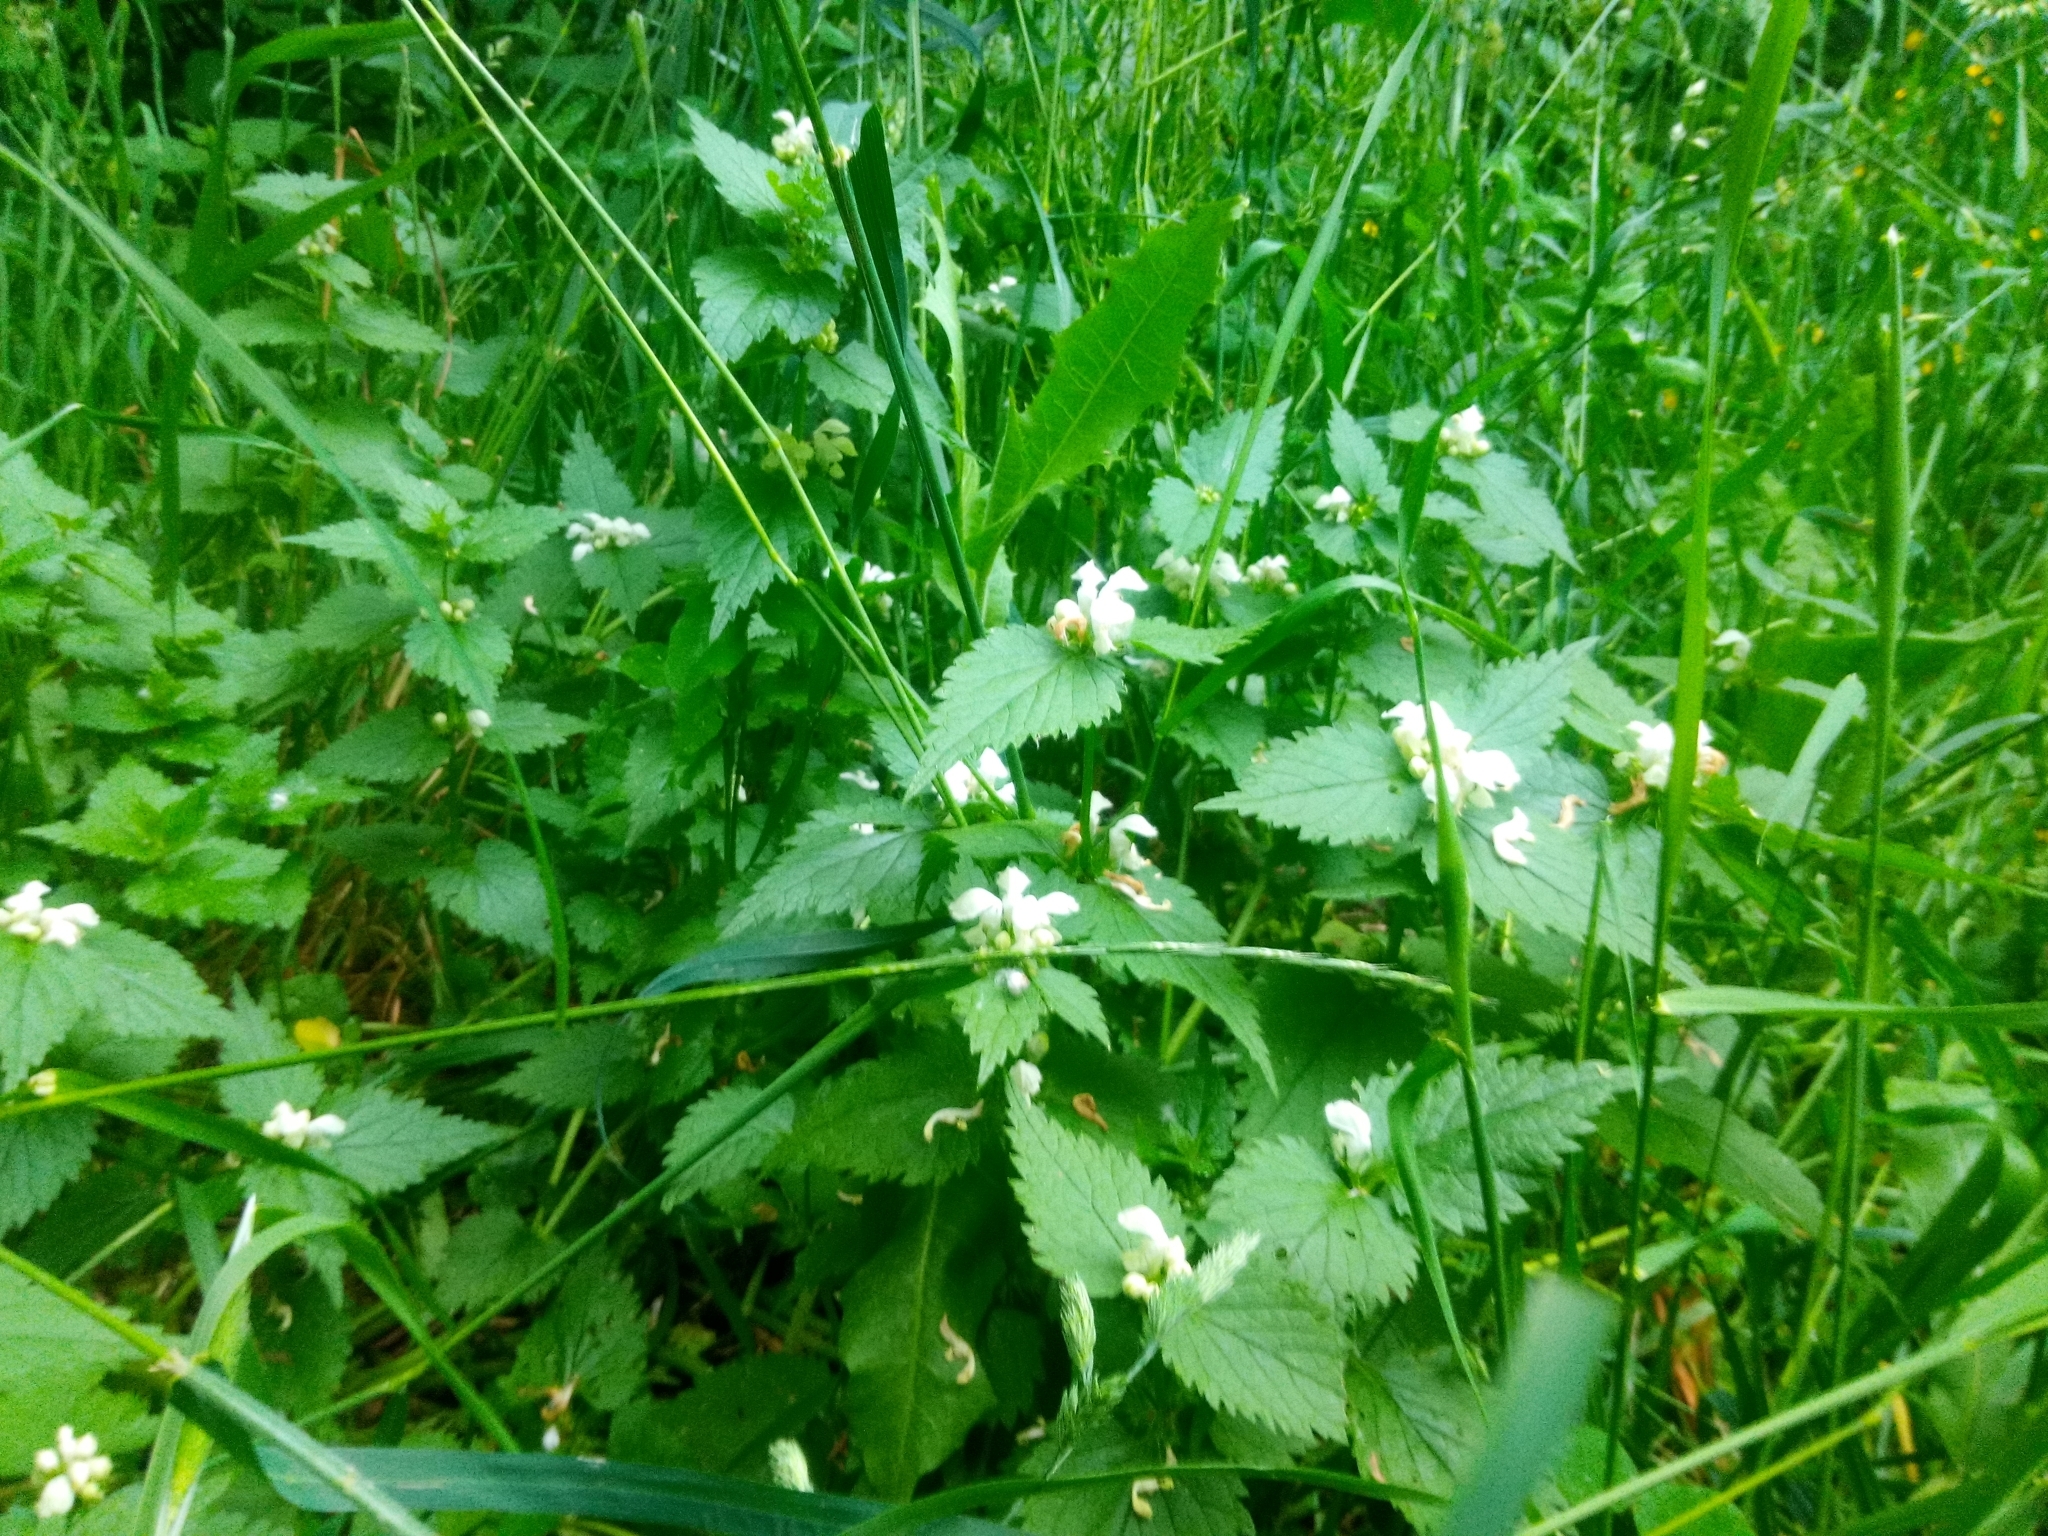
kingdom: Plantae
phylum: Tracheophyta
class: Magnoliopsida
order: Lamiales
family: Lamiaceae
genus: Lamium
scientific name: Lamium album
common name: White dead-nettle
